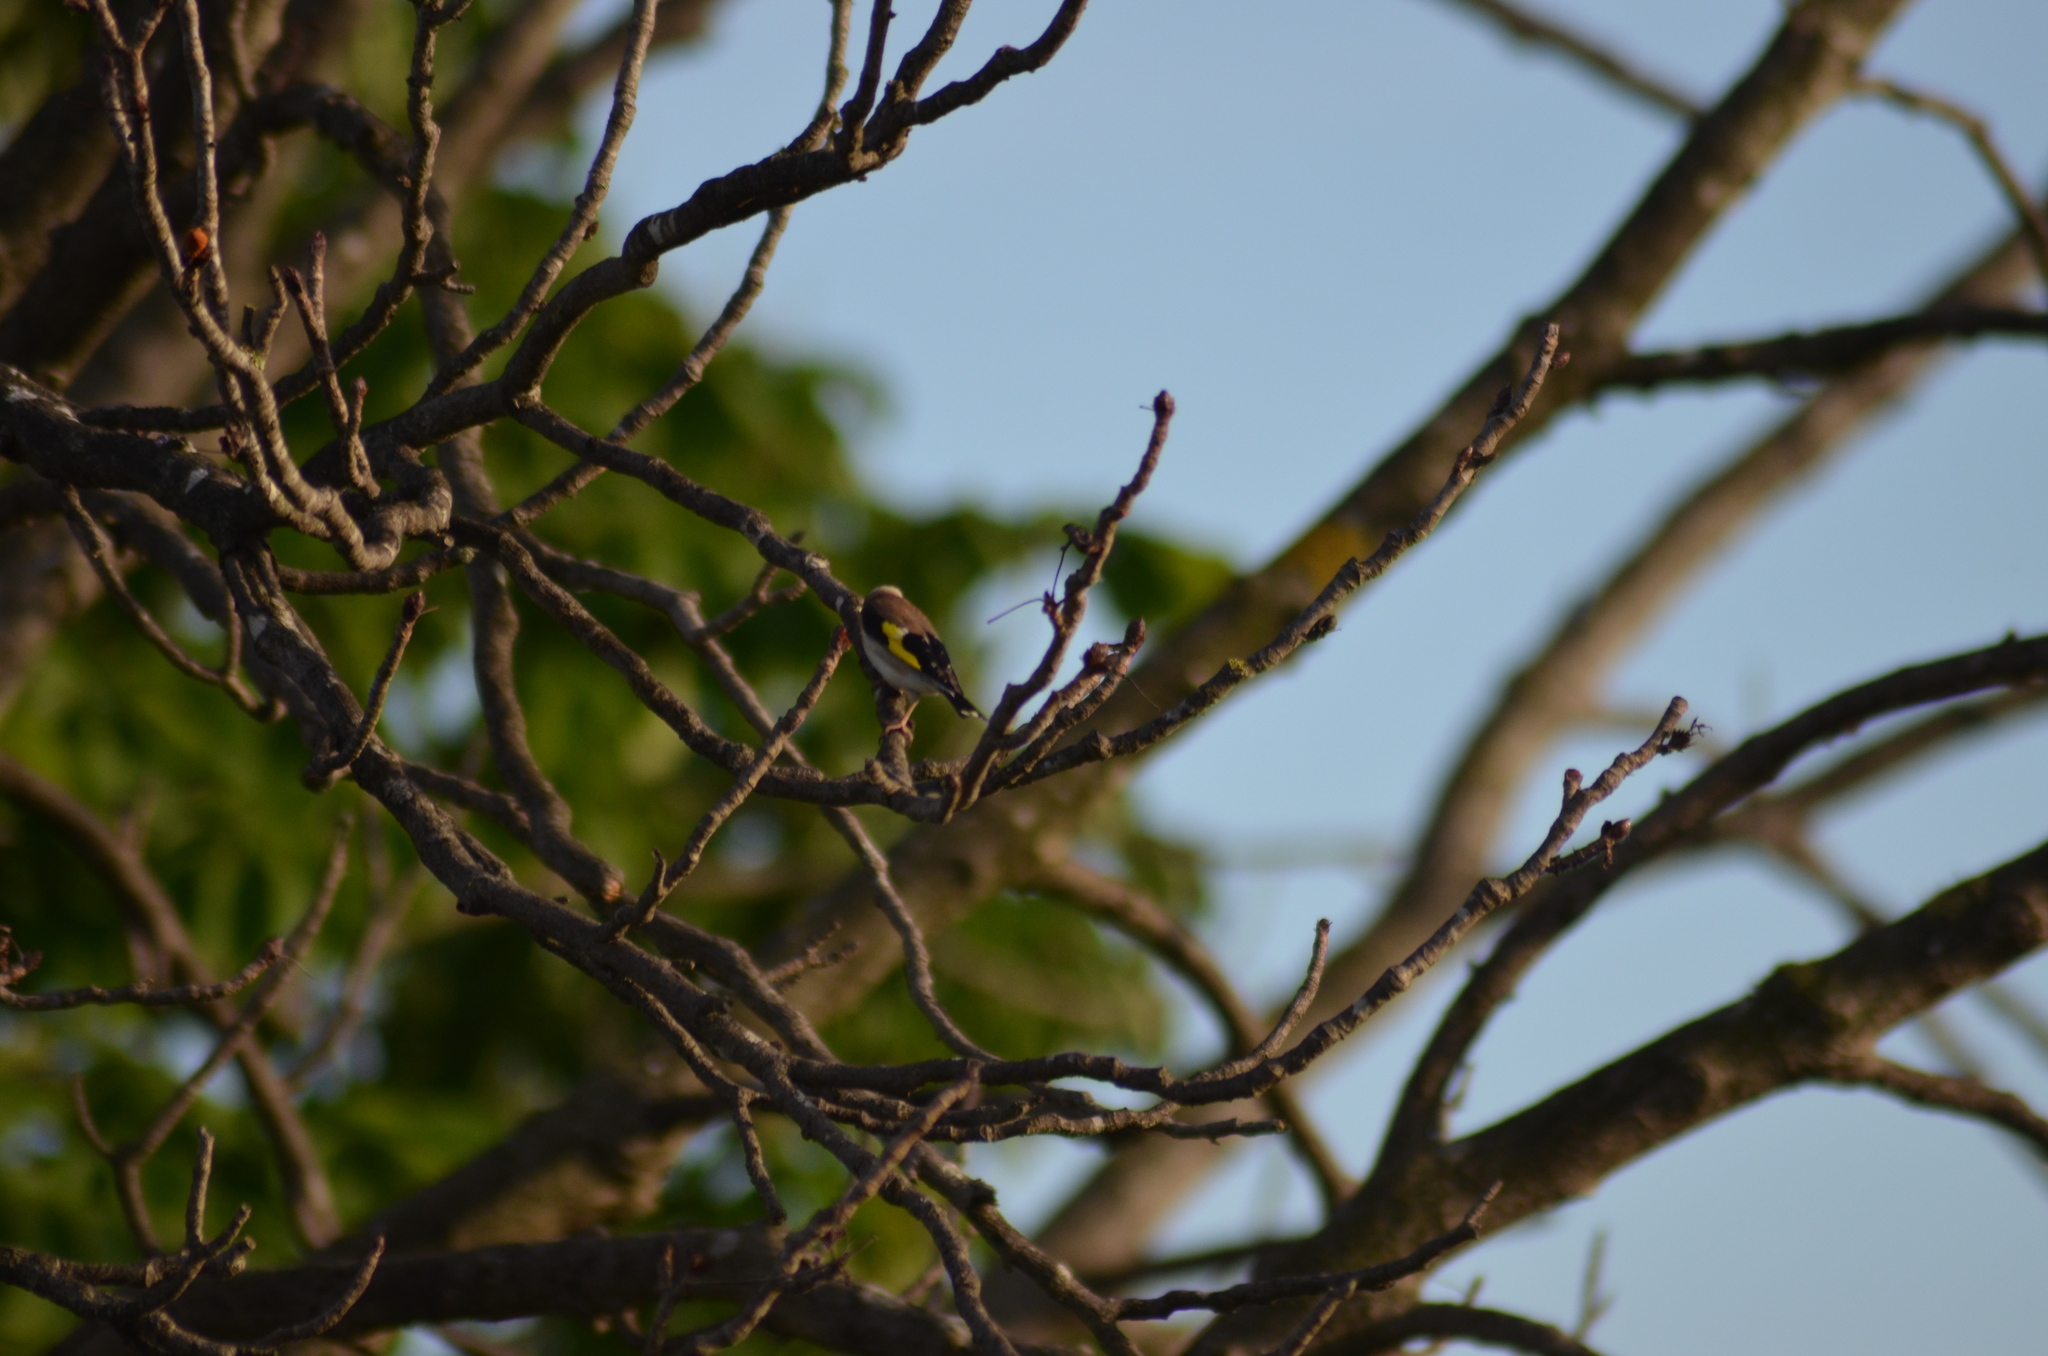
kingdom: Animalia
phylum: Chordata
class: Aves
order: Passeriformes
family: Fringillidae
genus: Carduelis
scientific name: Carduelis carduelis
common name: European goldfinch
